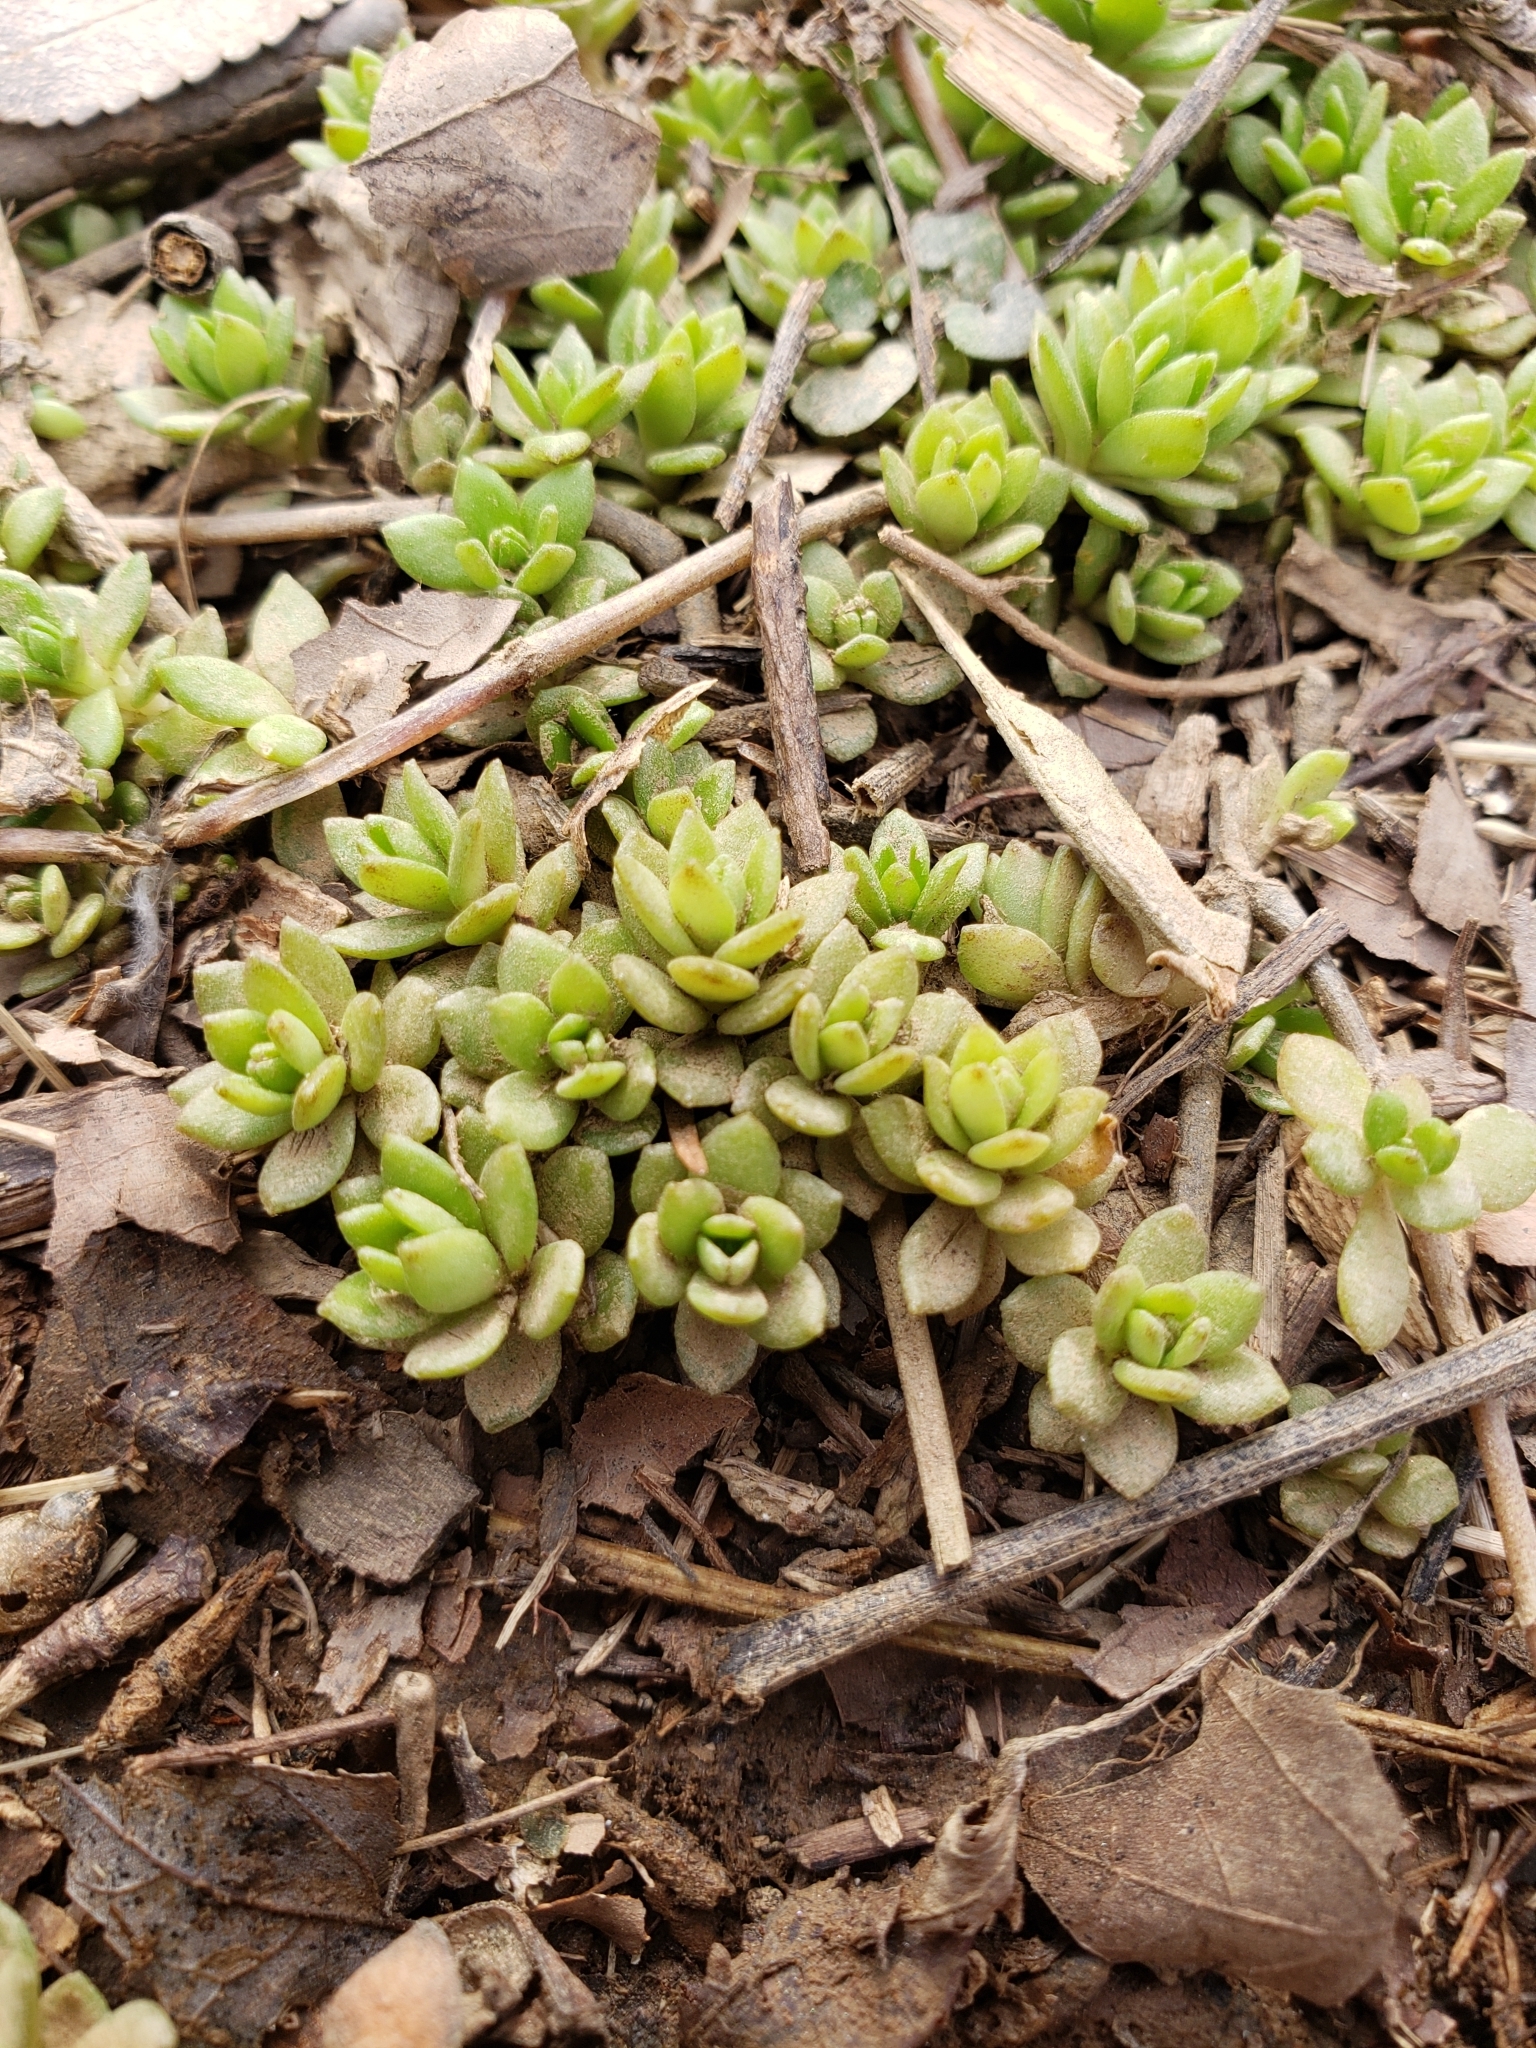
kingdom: Plantae
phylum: Tracheophyta
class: Magnoliopsida
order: Saxifragales
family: Crassulaceae
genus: Sedum
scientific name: Sedum sarmentosum
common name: Stringy stonecrop
